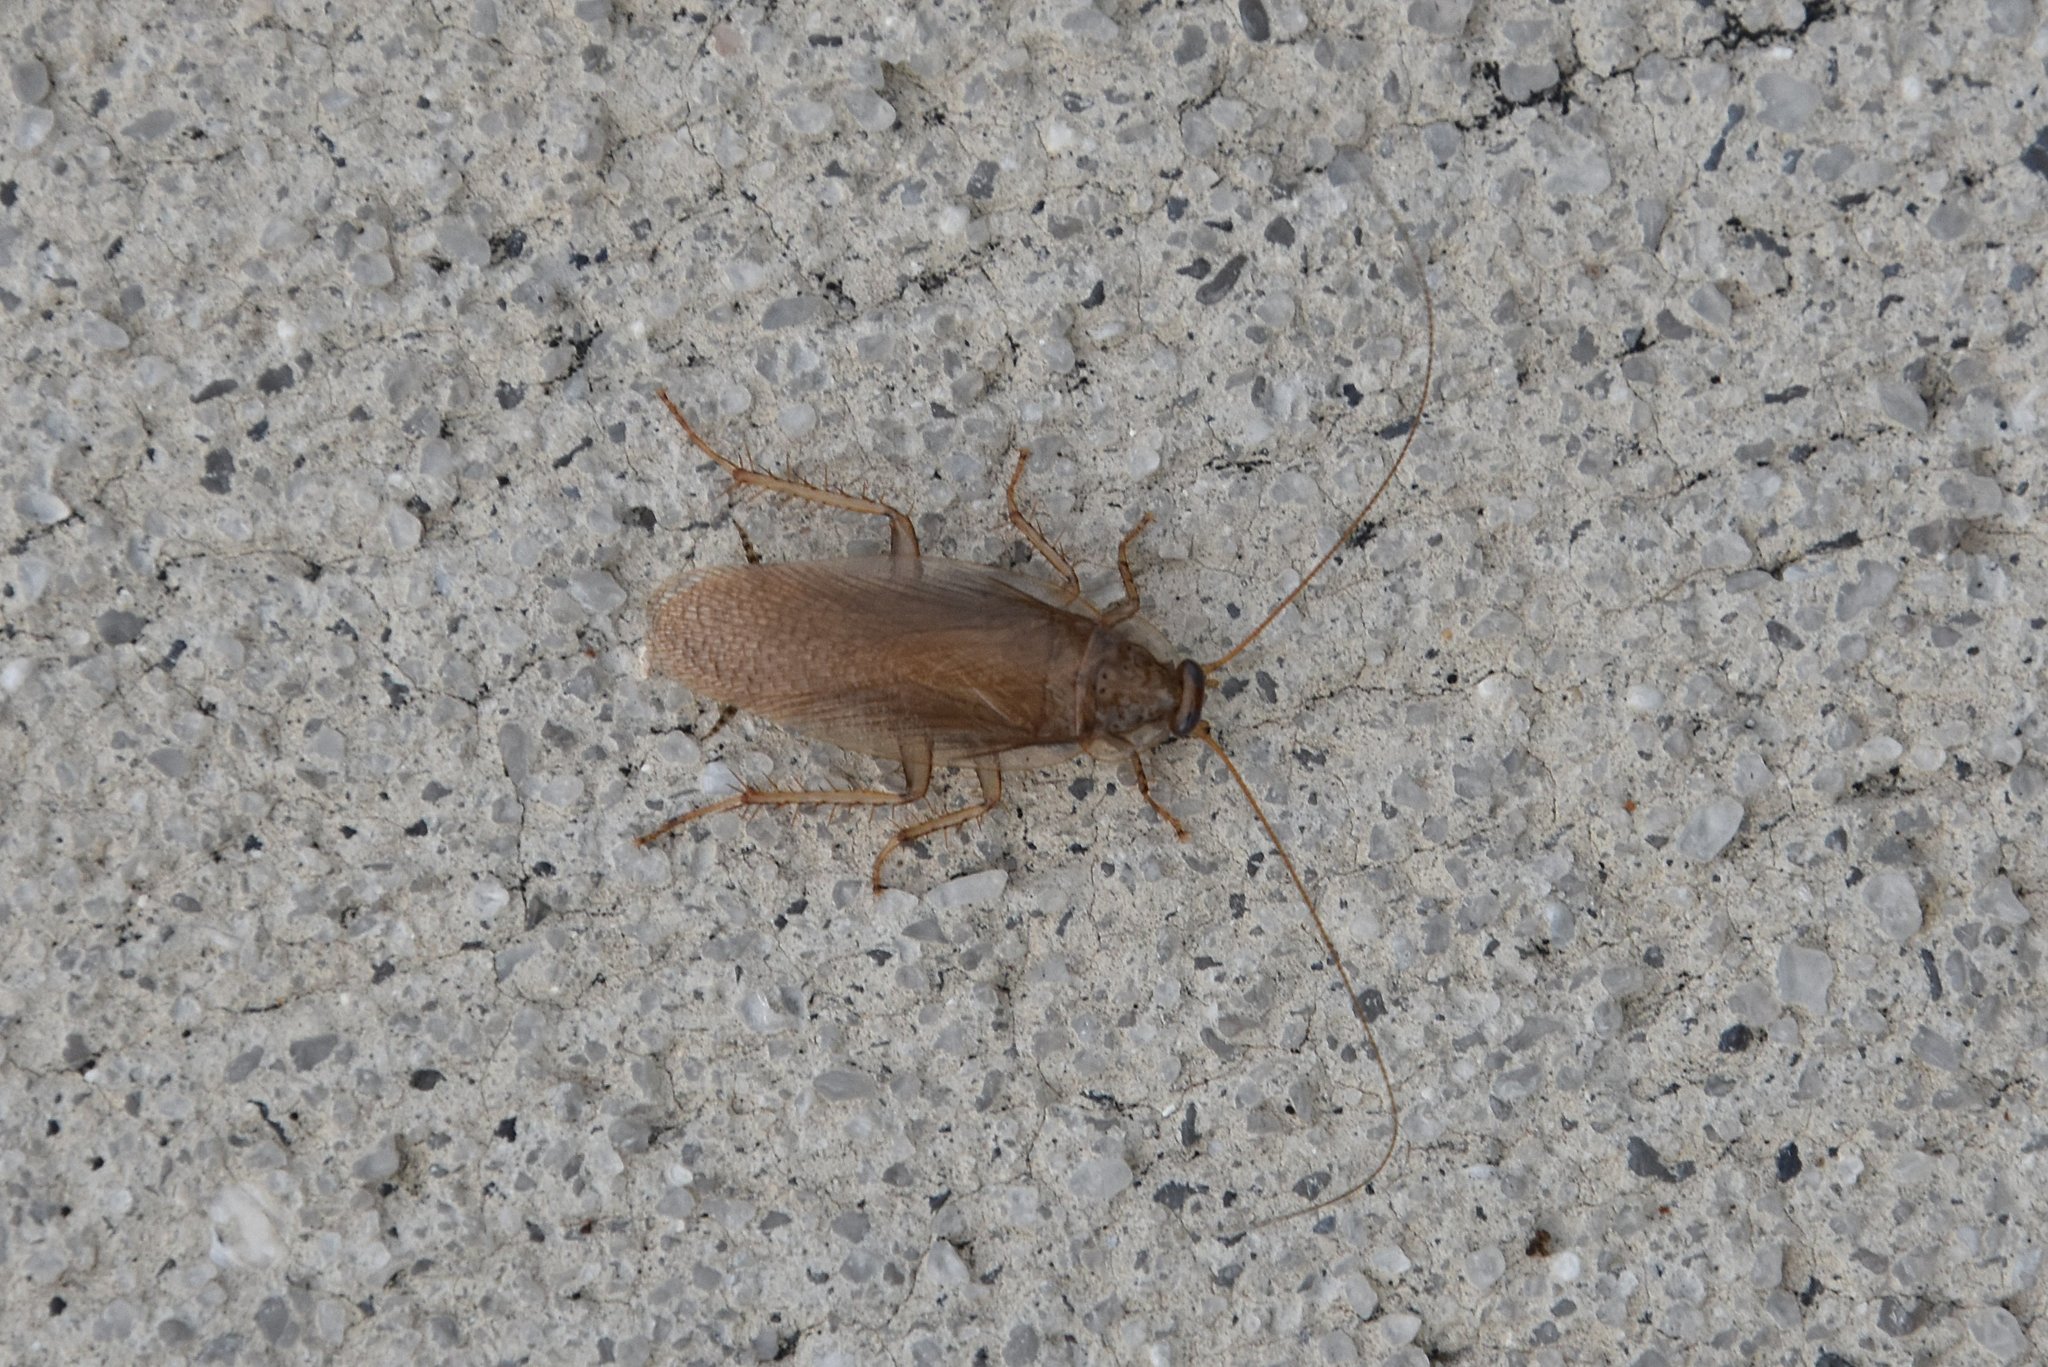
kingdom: Animalia
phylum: Arthropoda
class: Insecta
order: Blattodea
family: Ectobiidae
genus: Latiblattella
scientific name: Latiblattella rehni
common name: Rehn's cockroach
